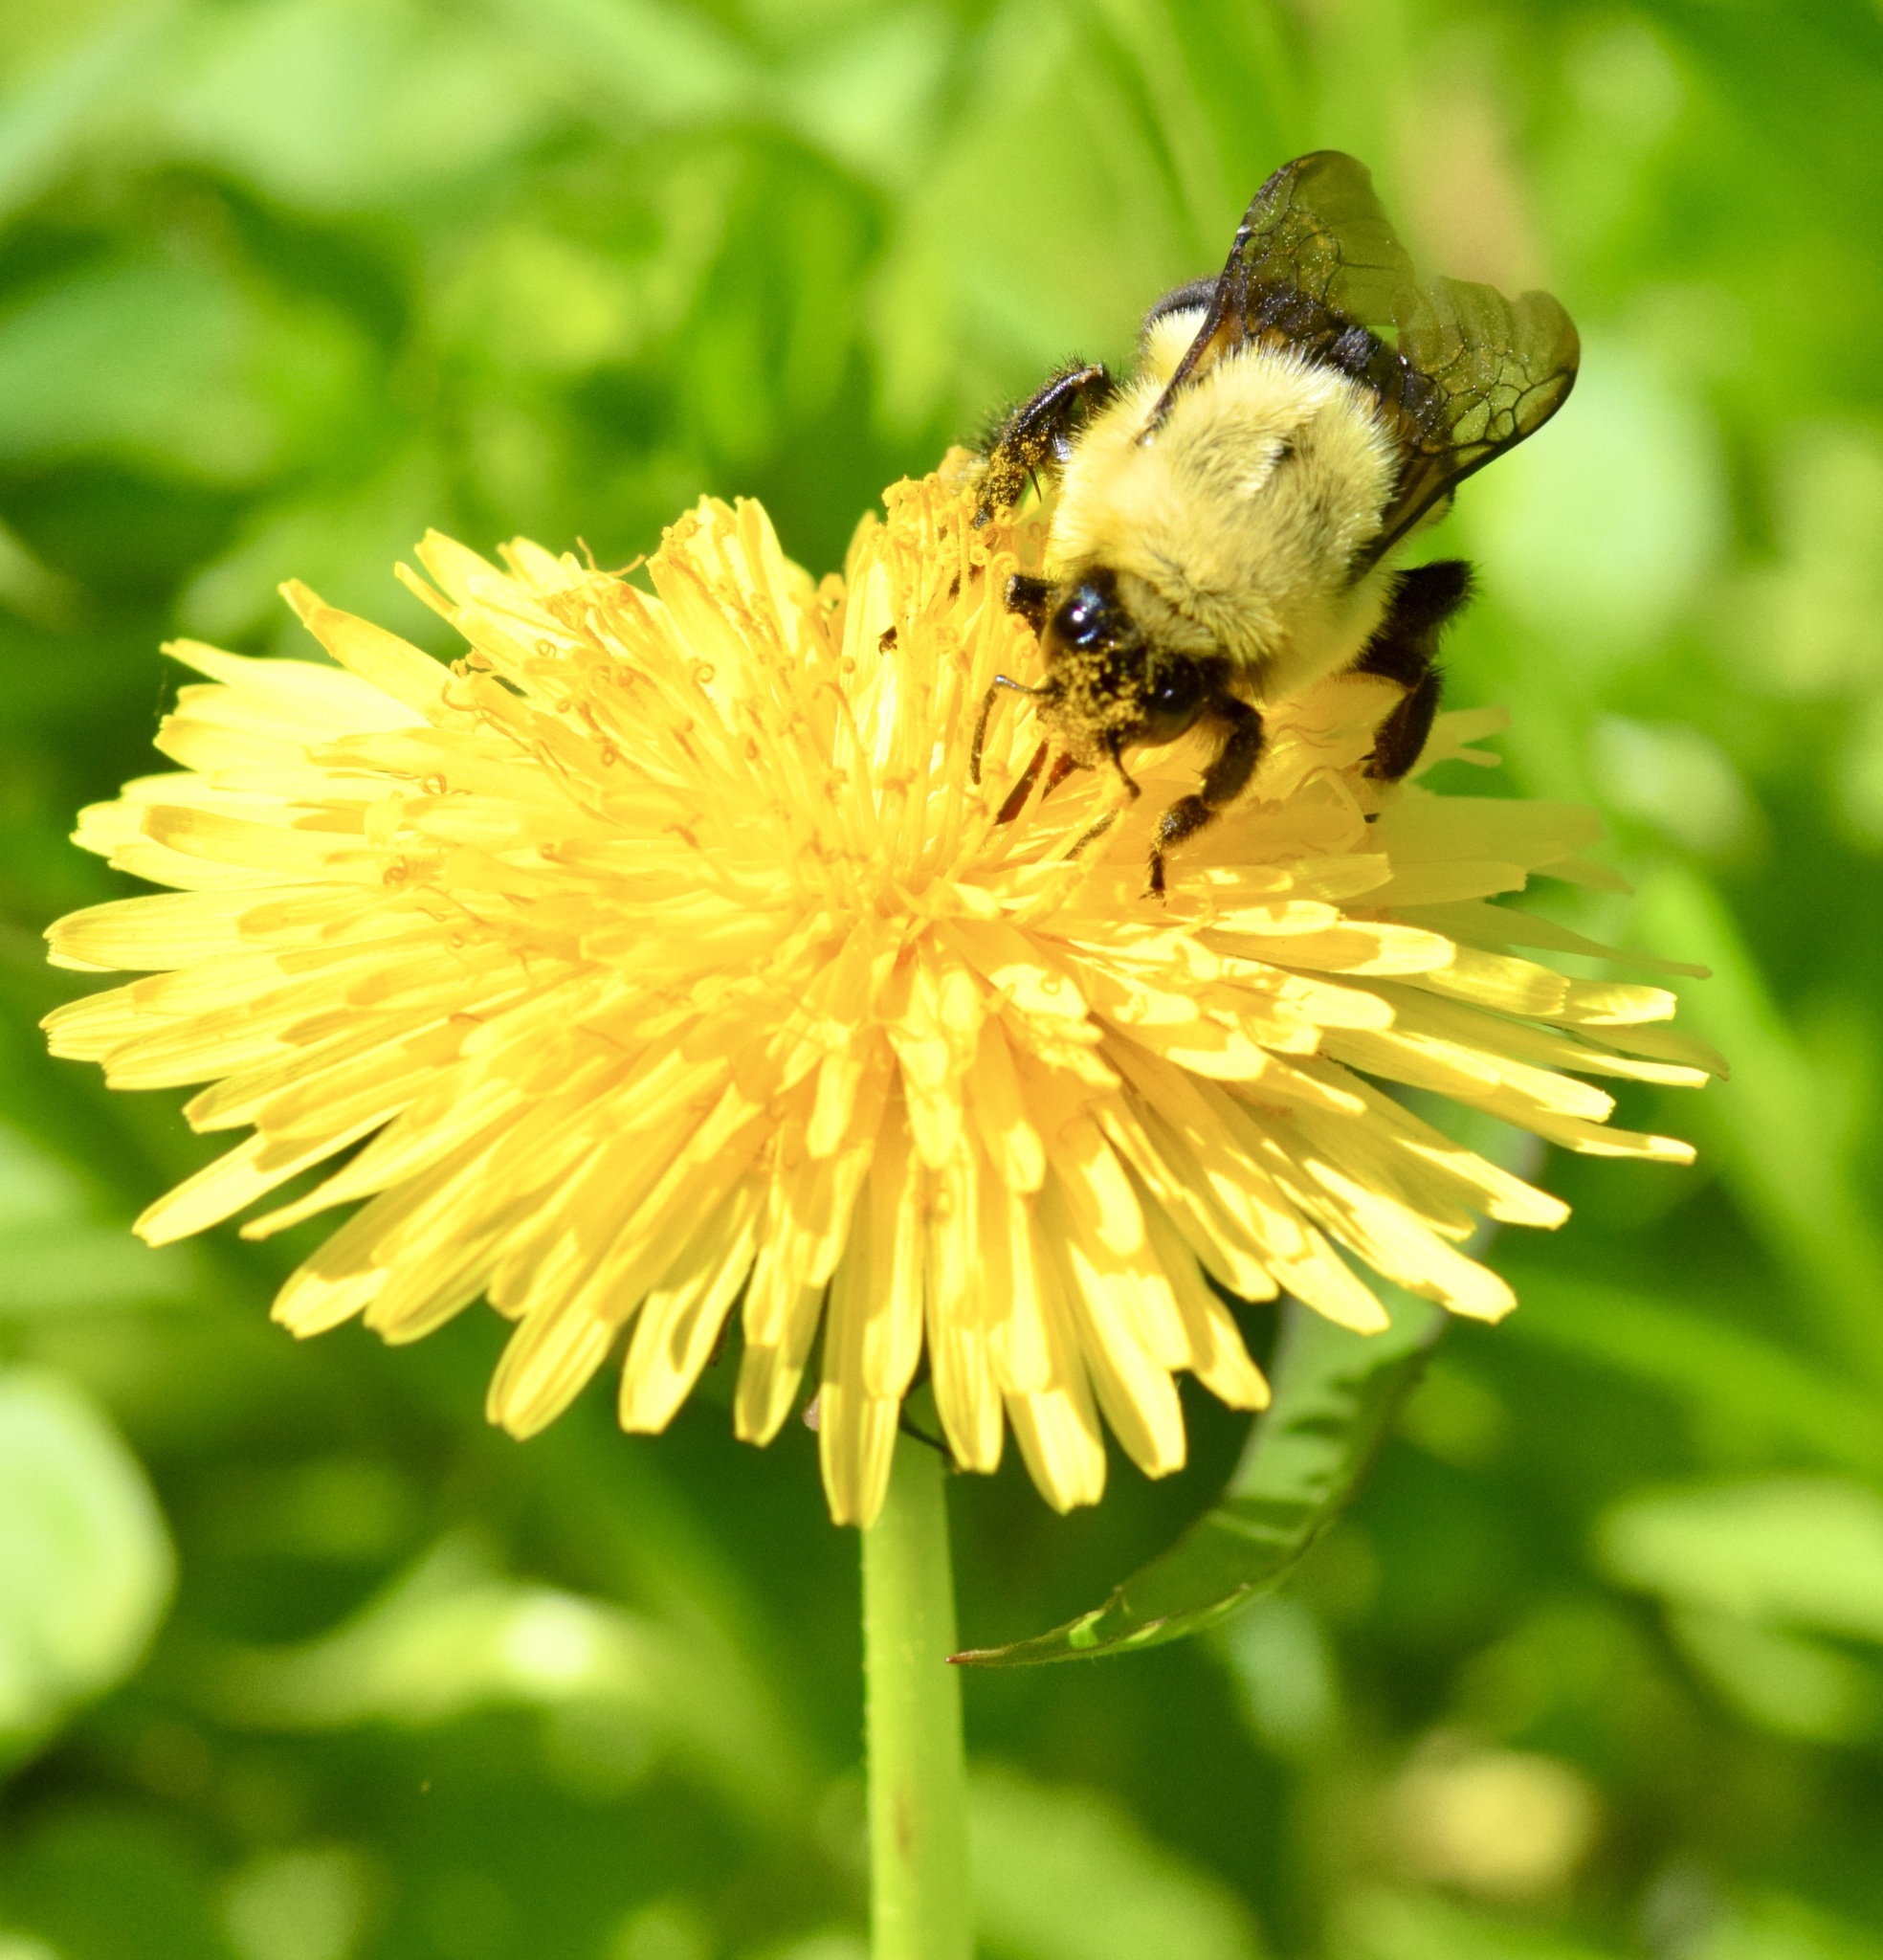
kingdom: Animalia
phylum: Arthropoda
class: Insecta
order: Hymenoptera
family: Apidae
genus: Bombus
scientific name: Bombus impatiens
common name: Common eastern bumble bee
